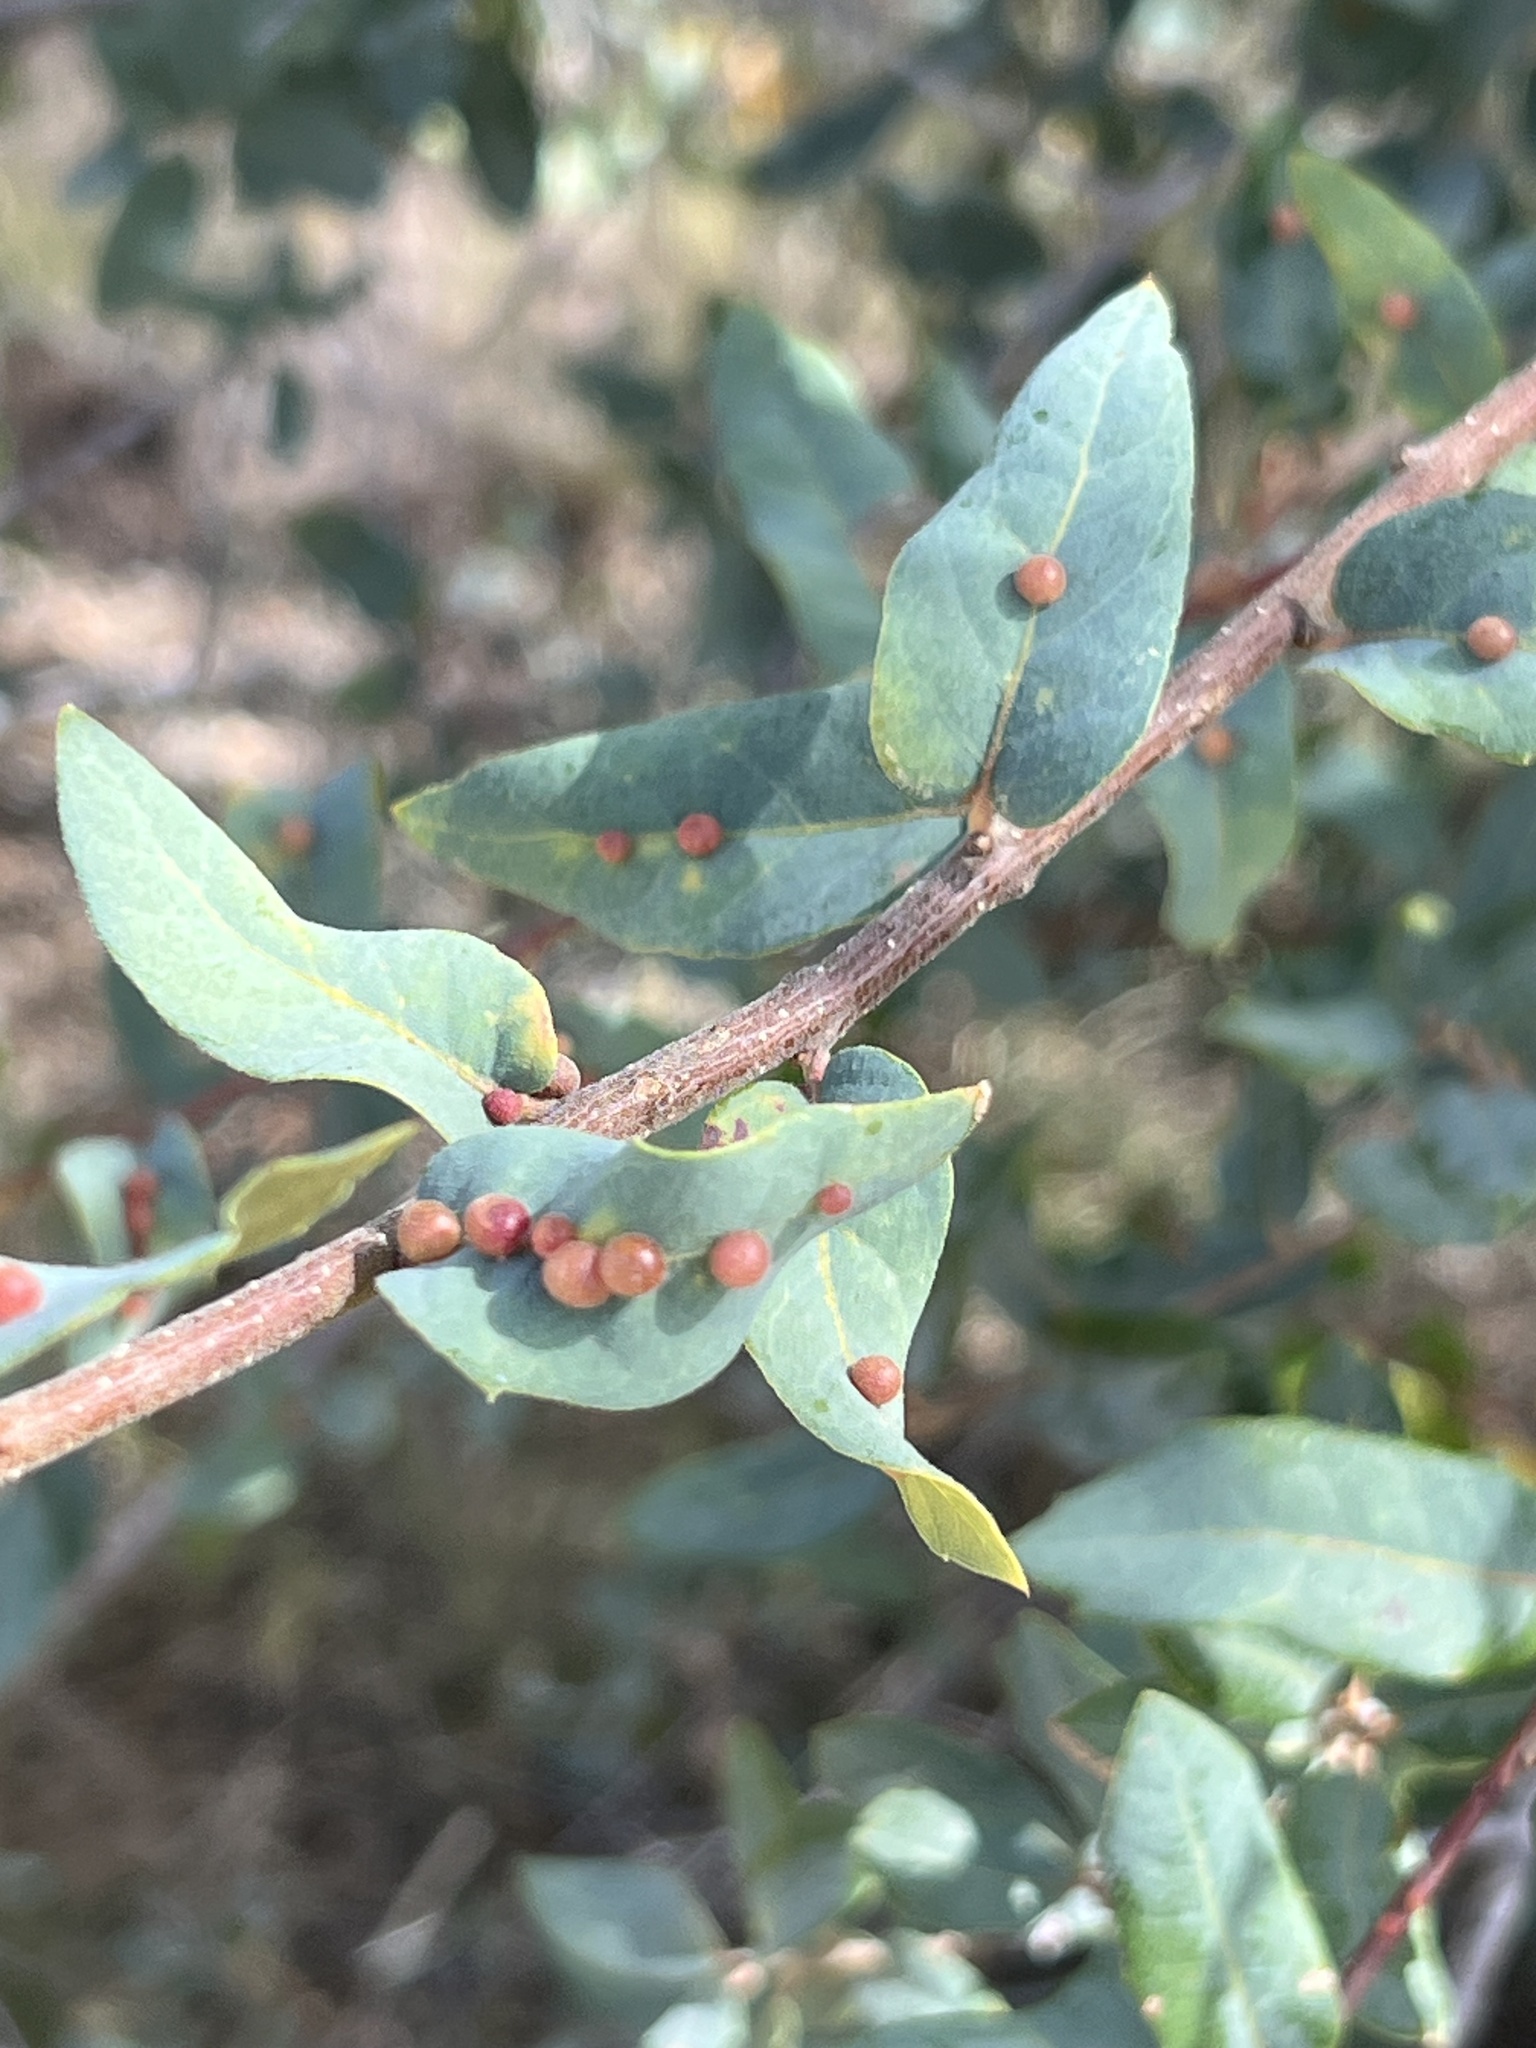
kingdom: Animalia
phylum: Arthropoda
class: Insecta
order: Hymenoptera
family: Cynipidae
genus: Trigonaspis
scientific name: Trigonaspis
